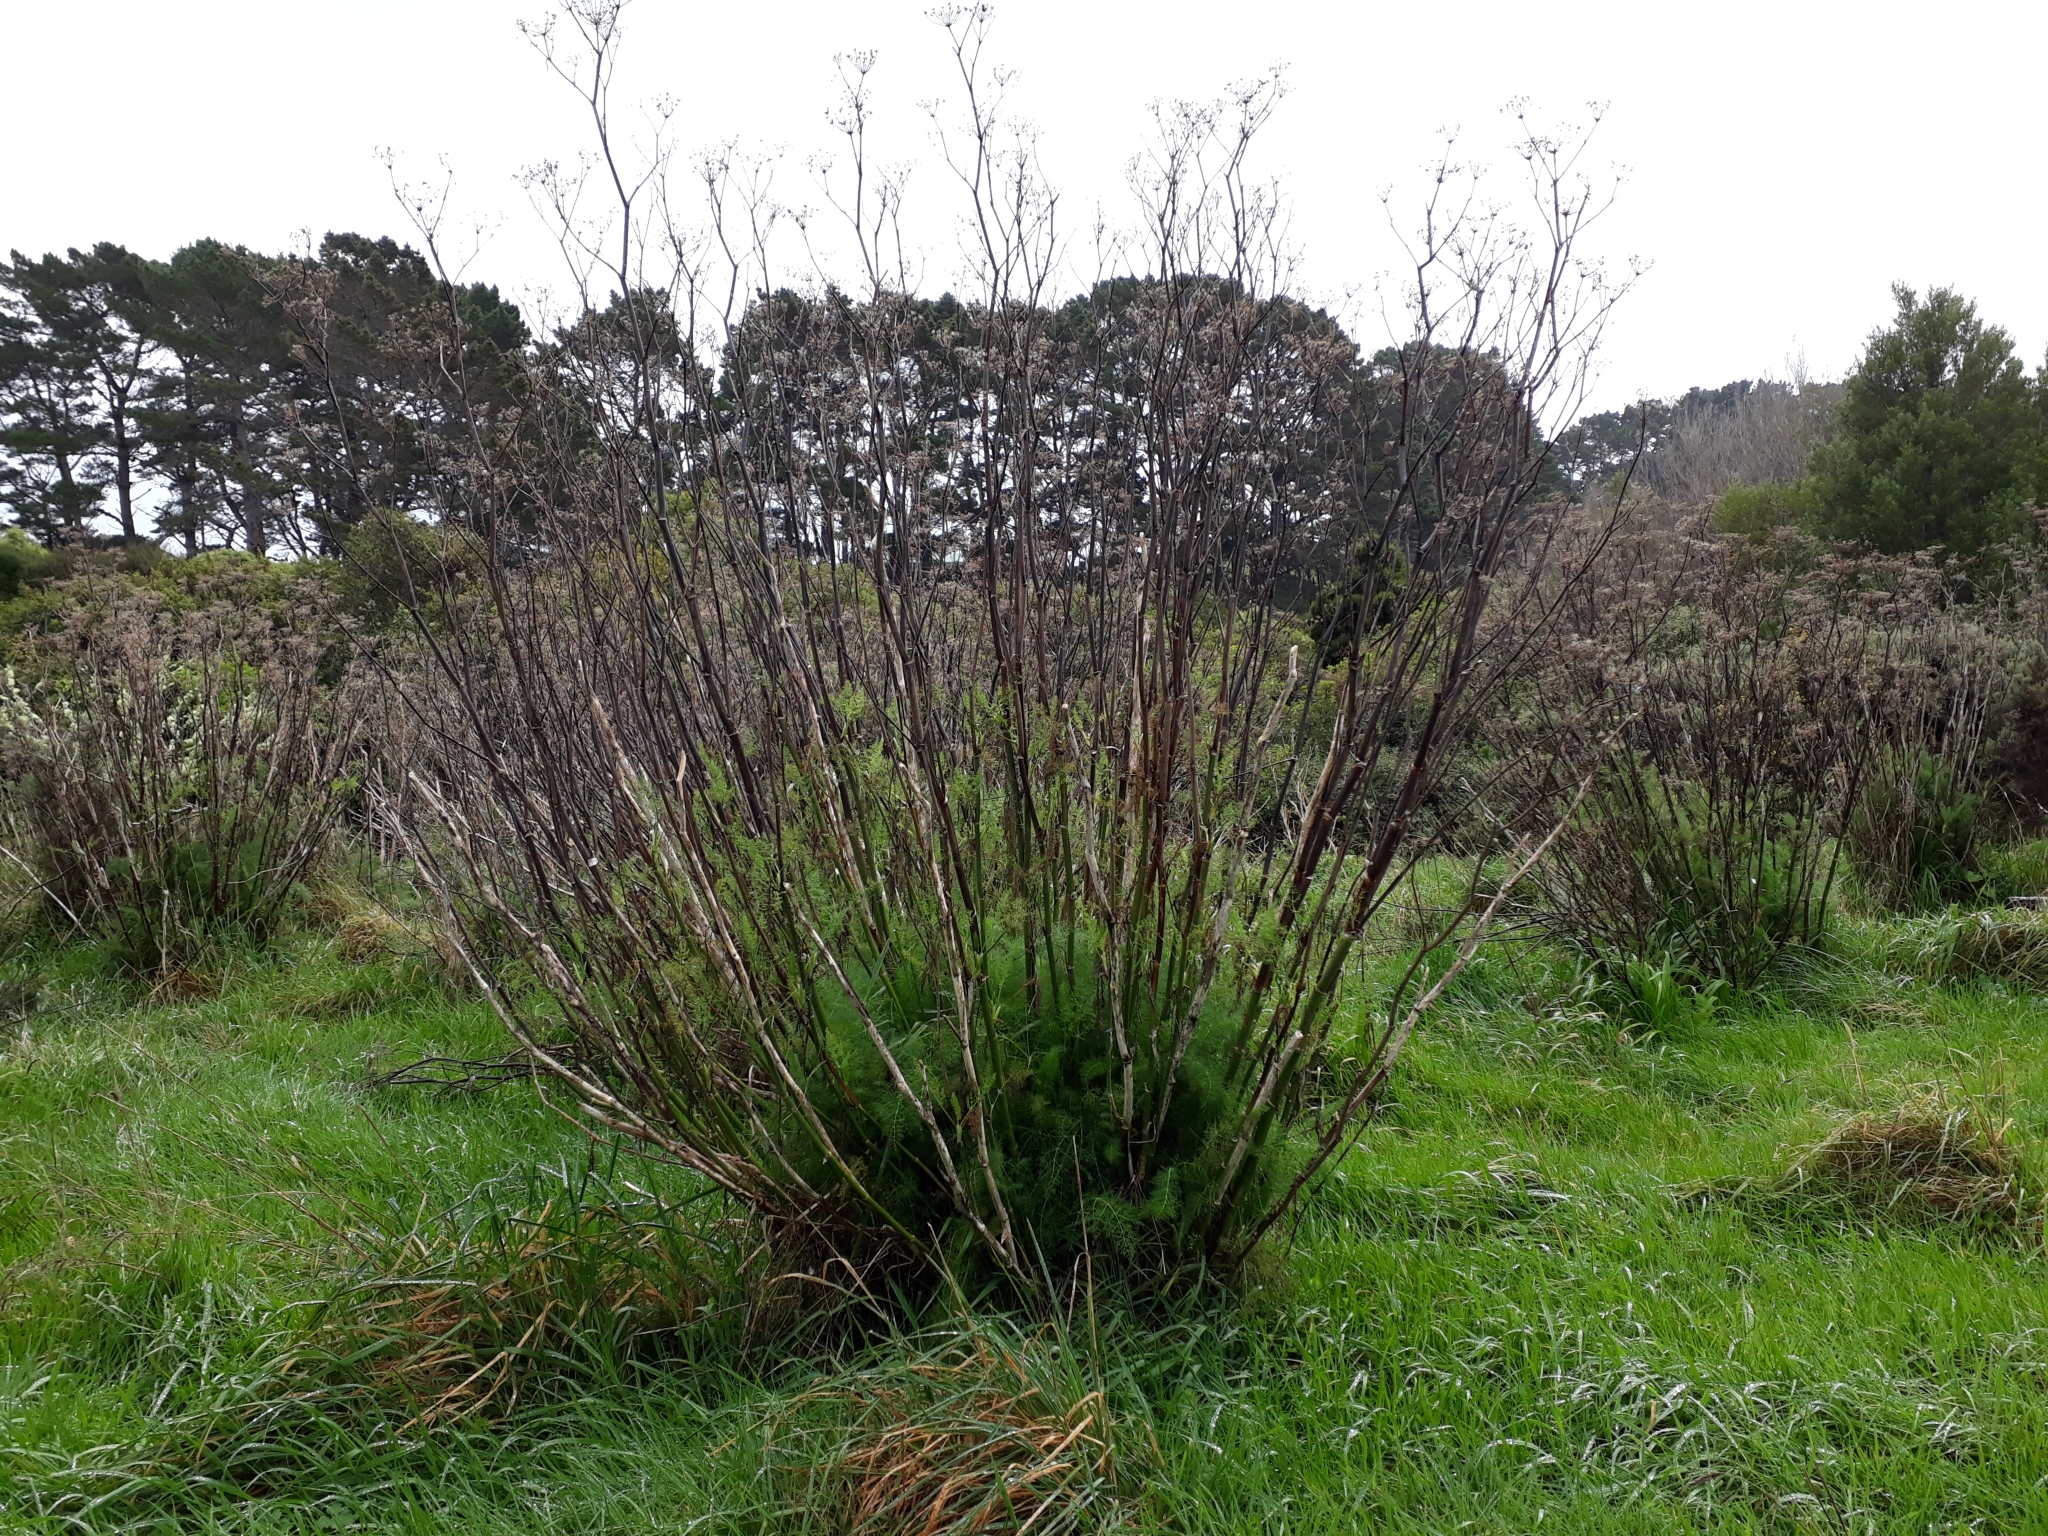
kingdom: Plantae
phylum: Tracheophyta
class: Magnoliopsida
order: Apiales
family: Apiaceae
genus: Foeniculum
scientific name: Foeniculum vulgare
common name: Fennel
